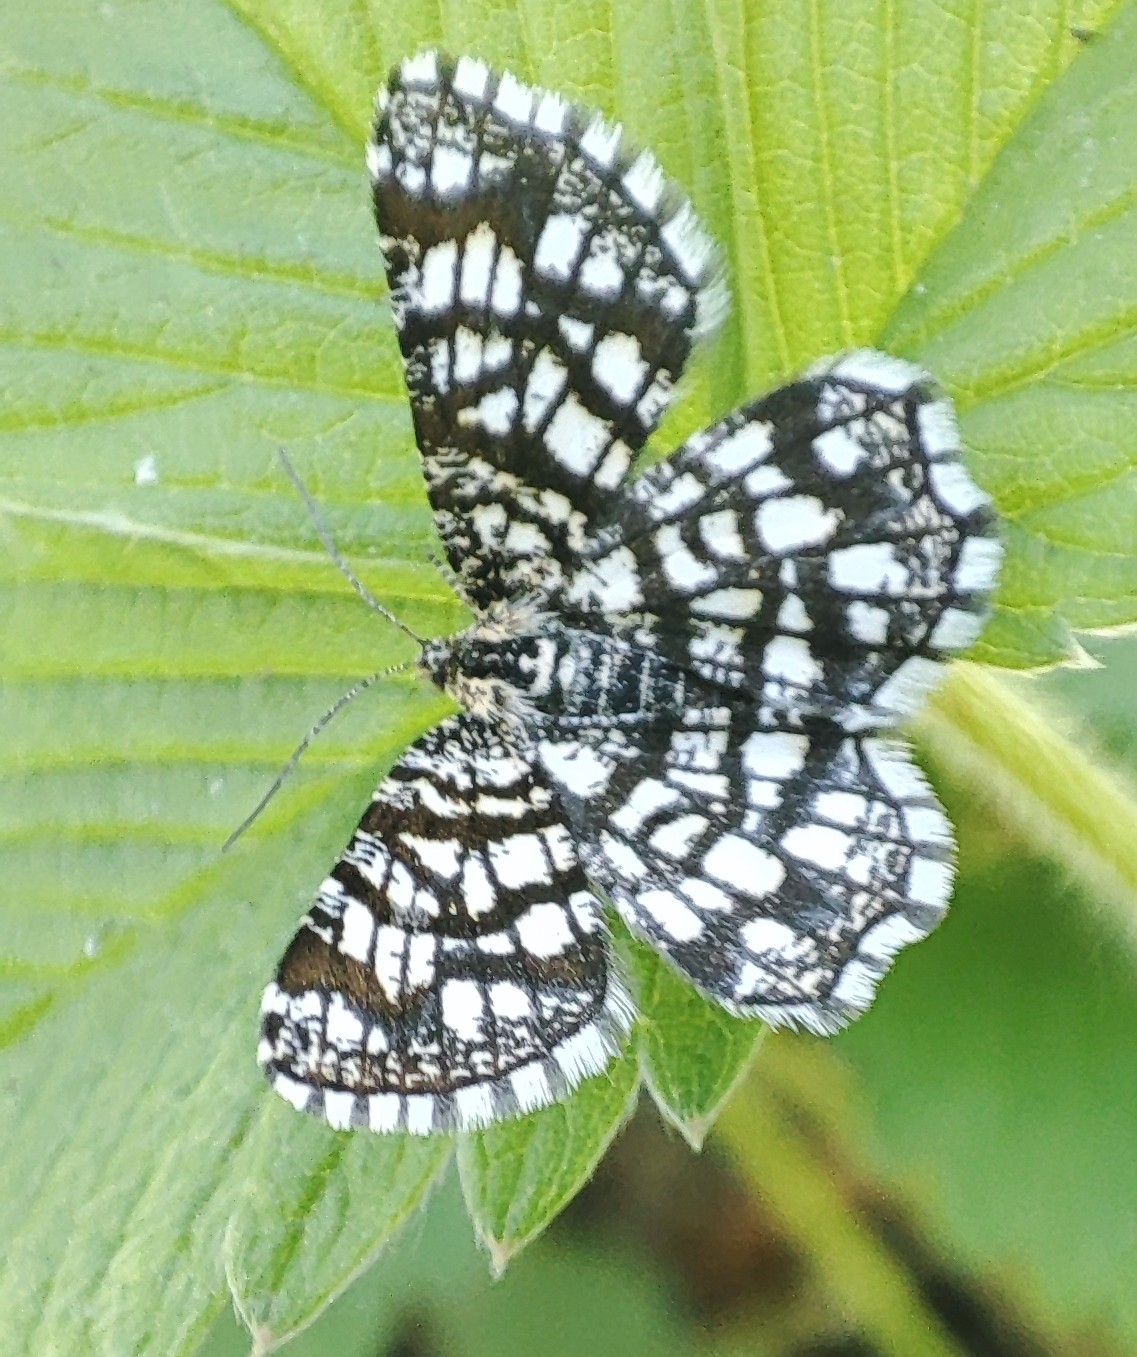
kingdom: Animalia
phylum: Arthropoda
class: Insecta
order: Lepidoptera
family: Geometridae
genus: Chiasmia
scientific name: Chiasmia clathrata
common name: Latticed heath
